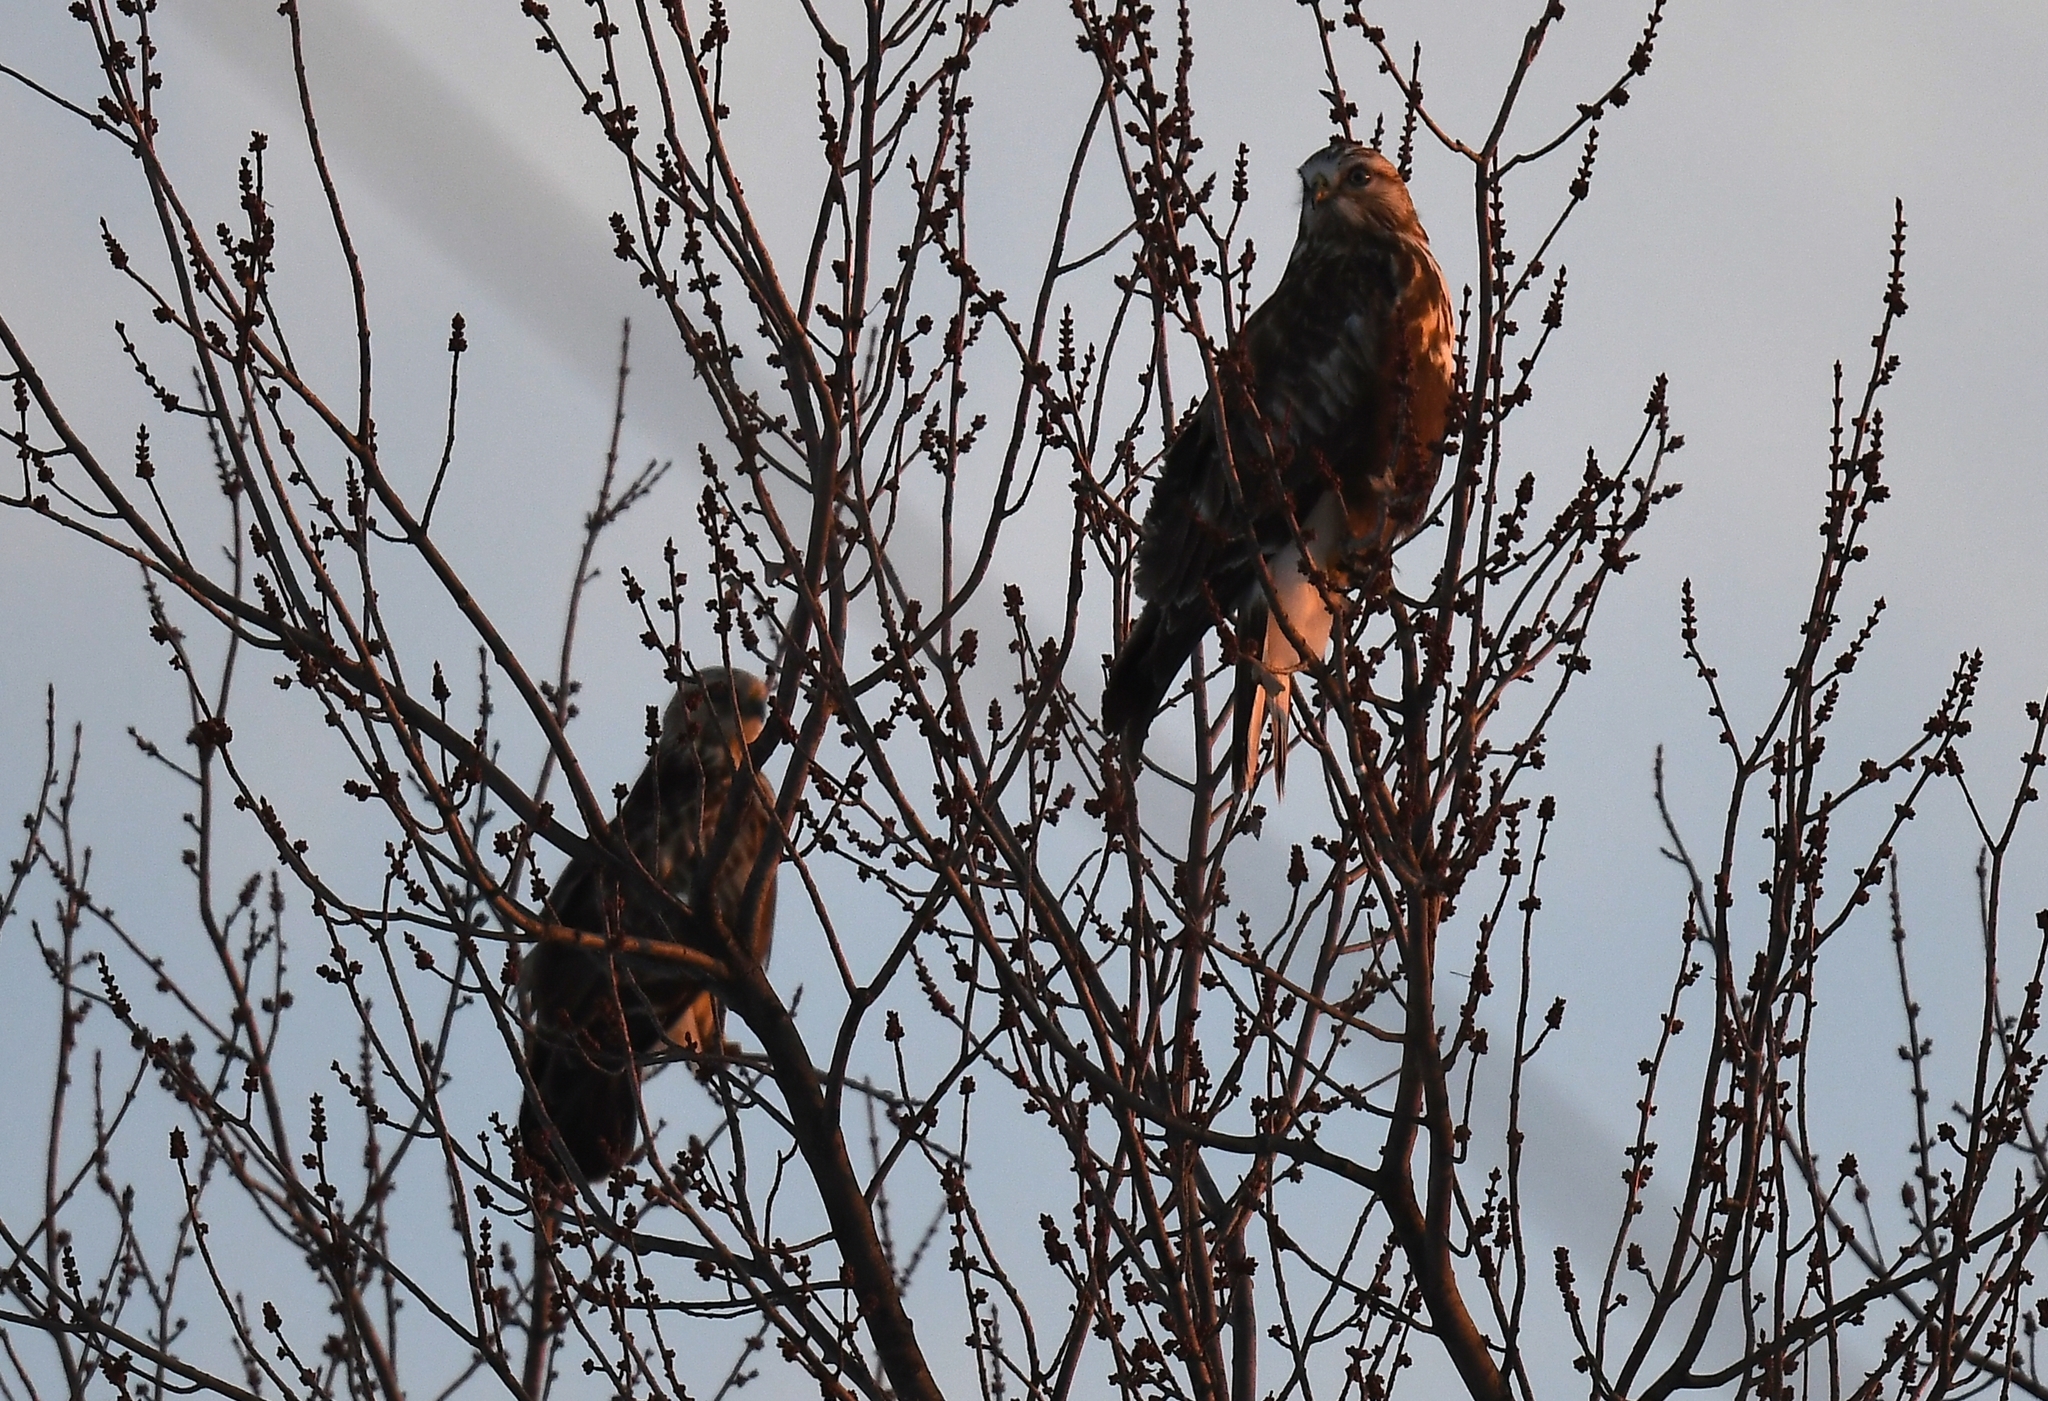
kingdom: Animalia
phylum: Chordata
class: Aves
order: Accipitriformes
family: Accipitridae
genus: Buteo
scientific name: Buteo lagopus
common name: Rough-legged buzzard
